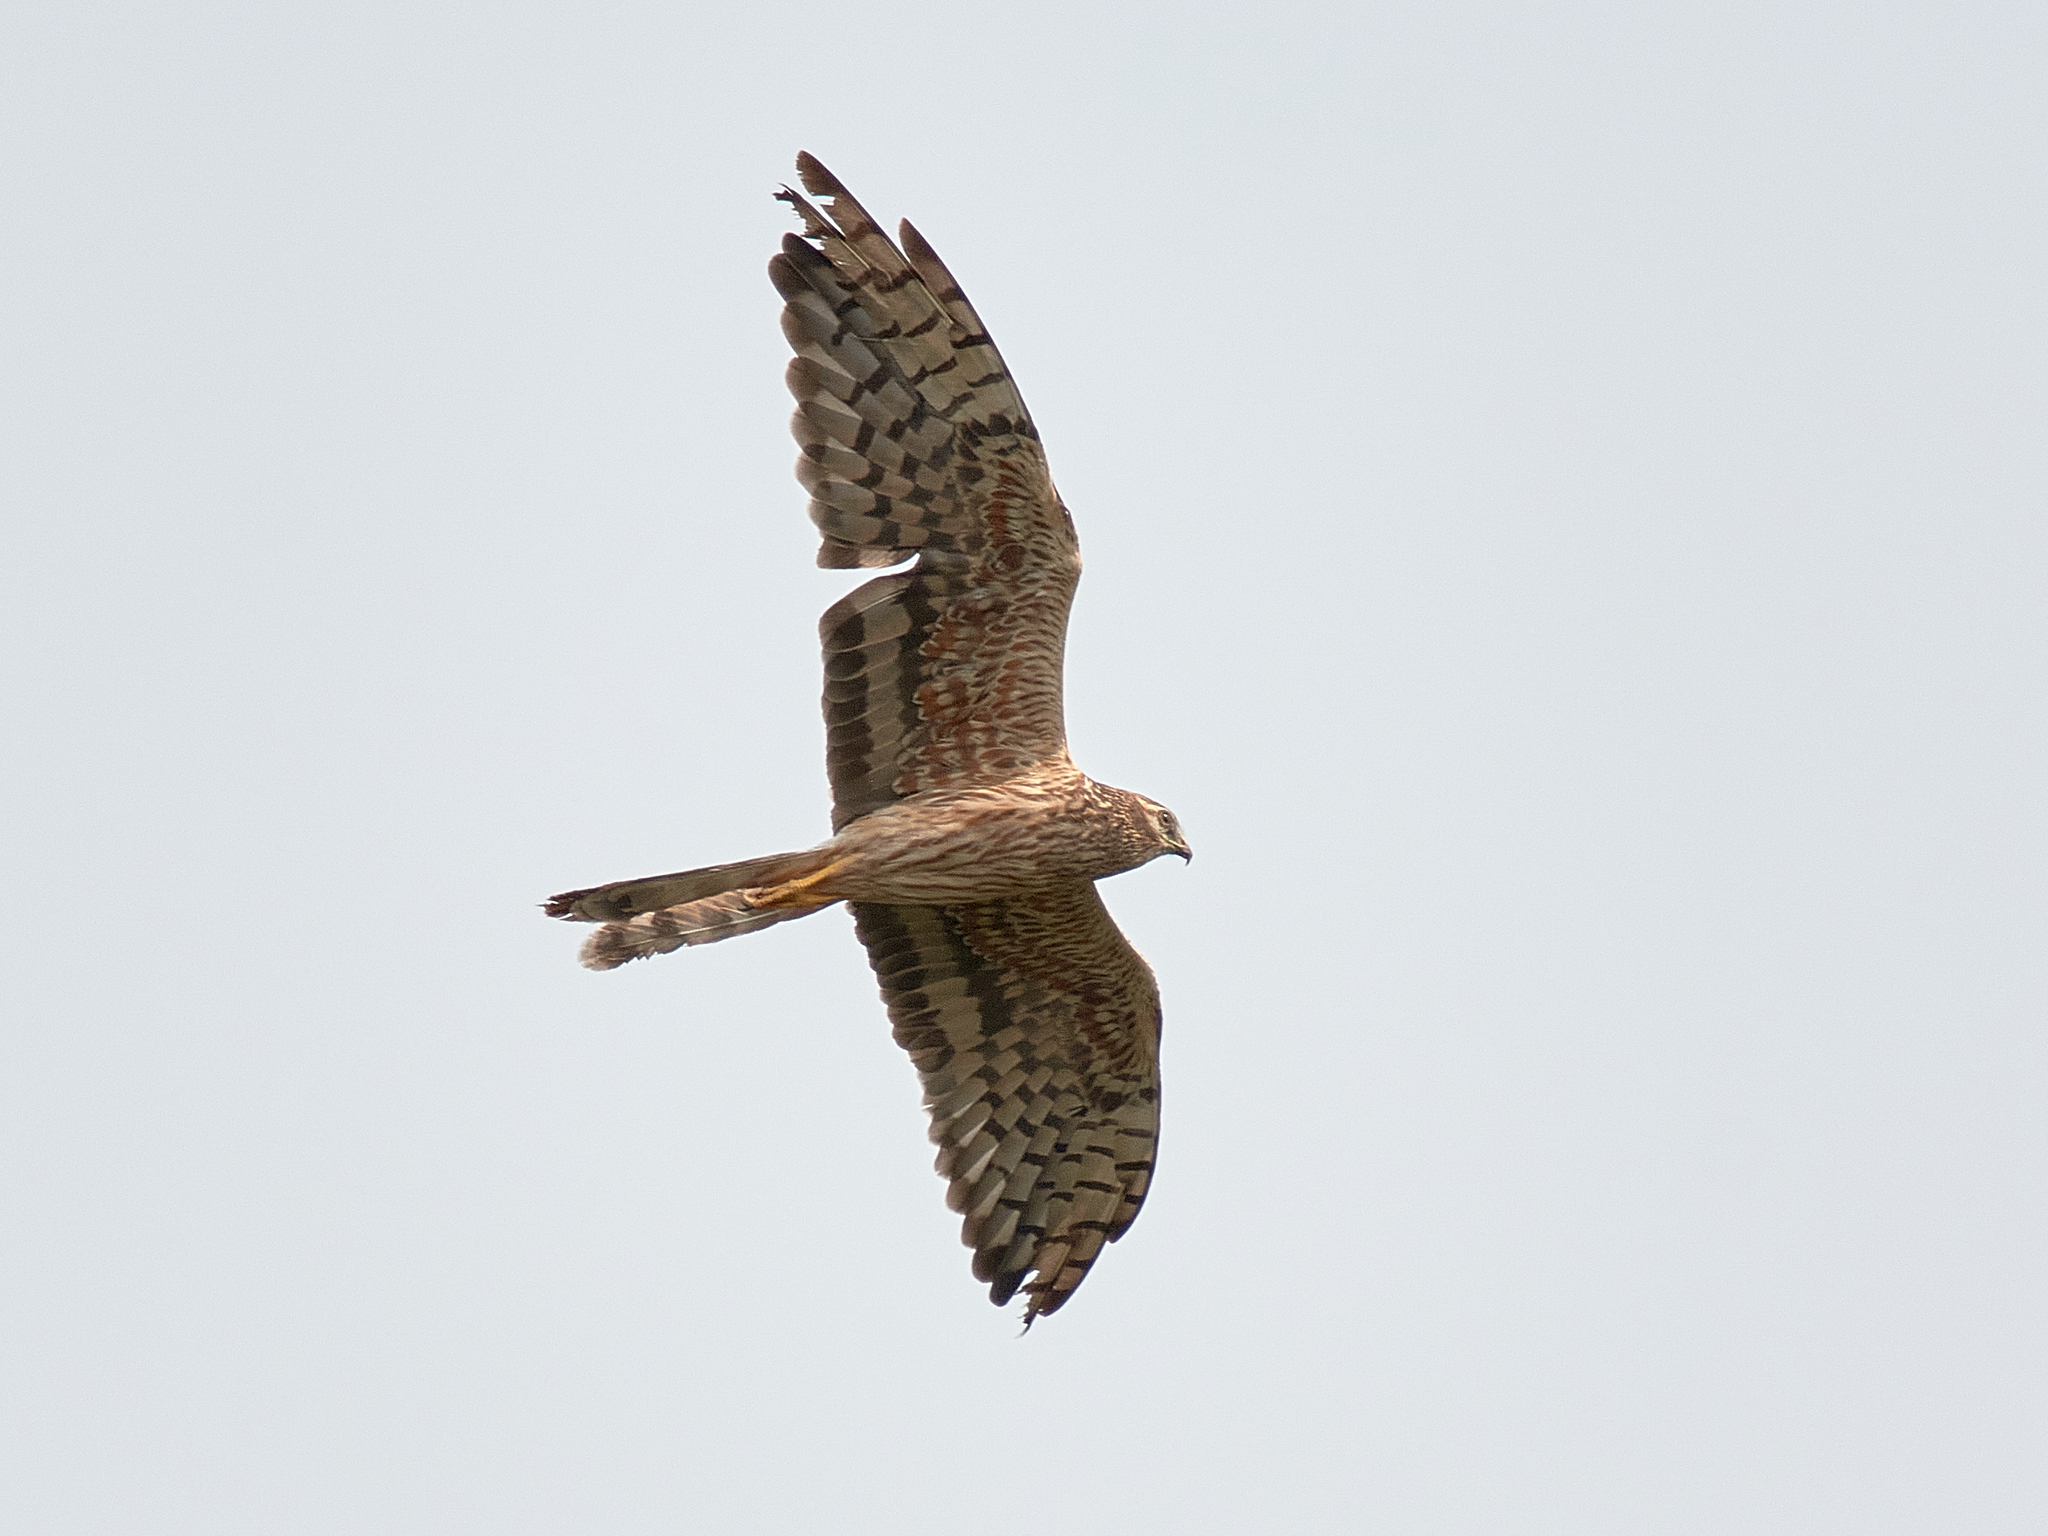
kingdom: Animalia
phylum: Chordata
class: Aves
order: Accipitriformes
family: Accipitridae
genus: Circus
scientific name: Circus pygargus
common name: Montagu's harrier
